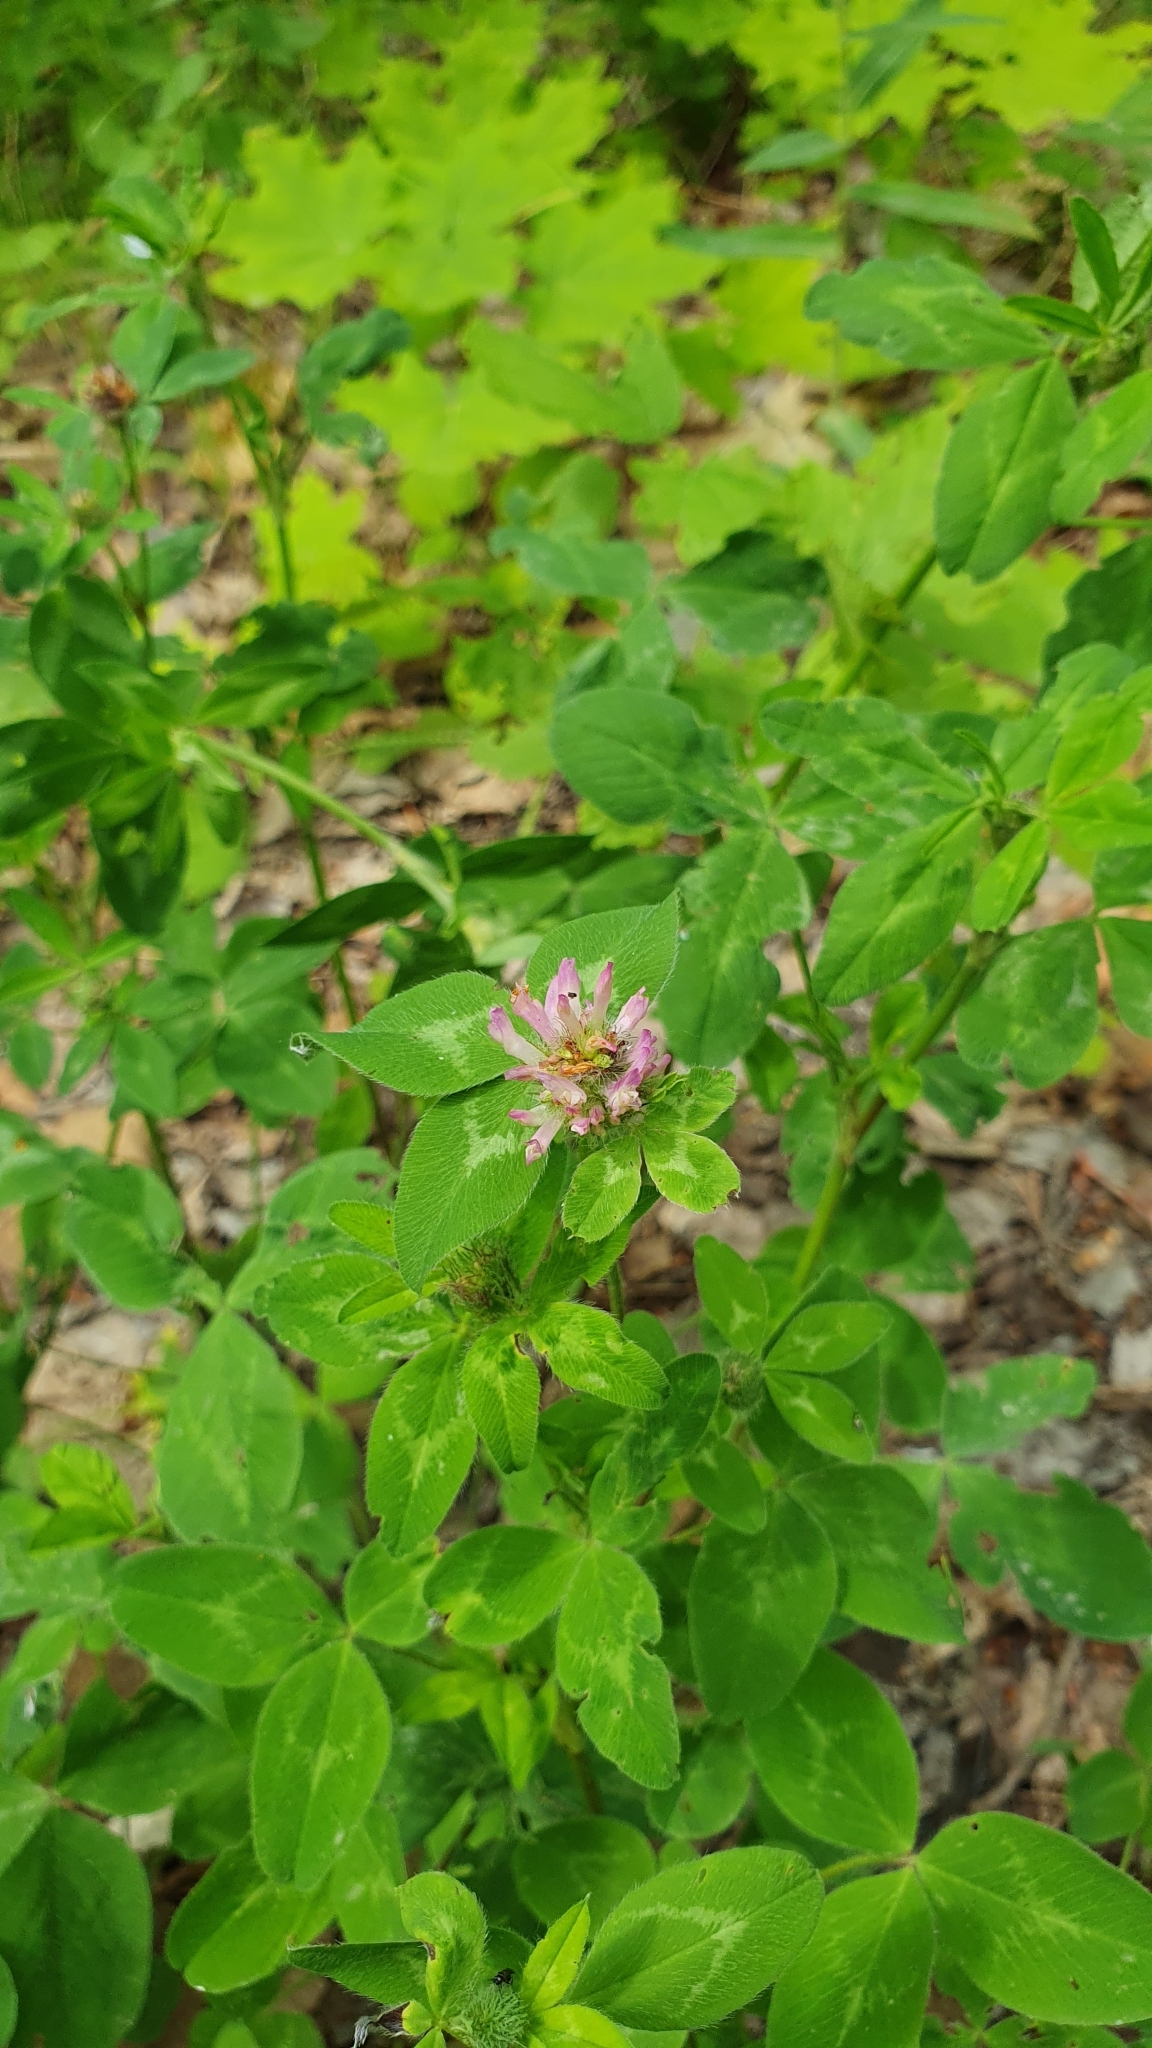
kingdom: Plantae
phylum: Tracheophyta
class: Magnoliopsida
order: Fabales
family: Fabaceae
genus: Trifolium
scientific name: Trifolium pratense
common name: Red clover
